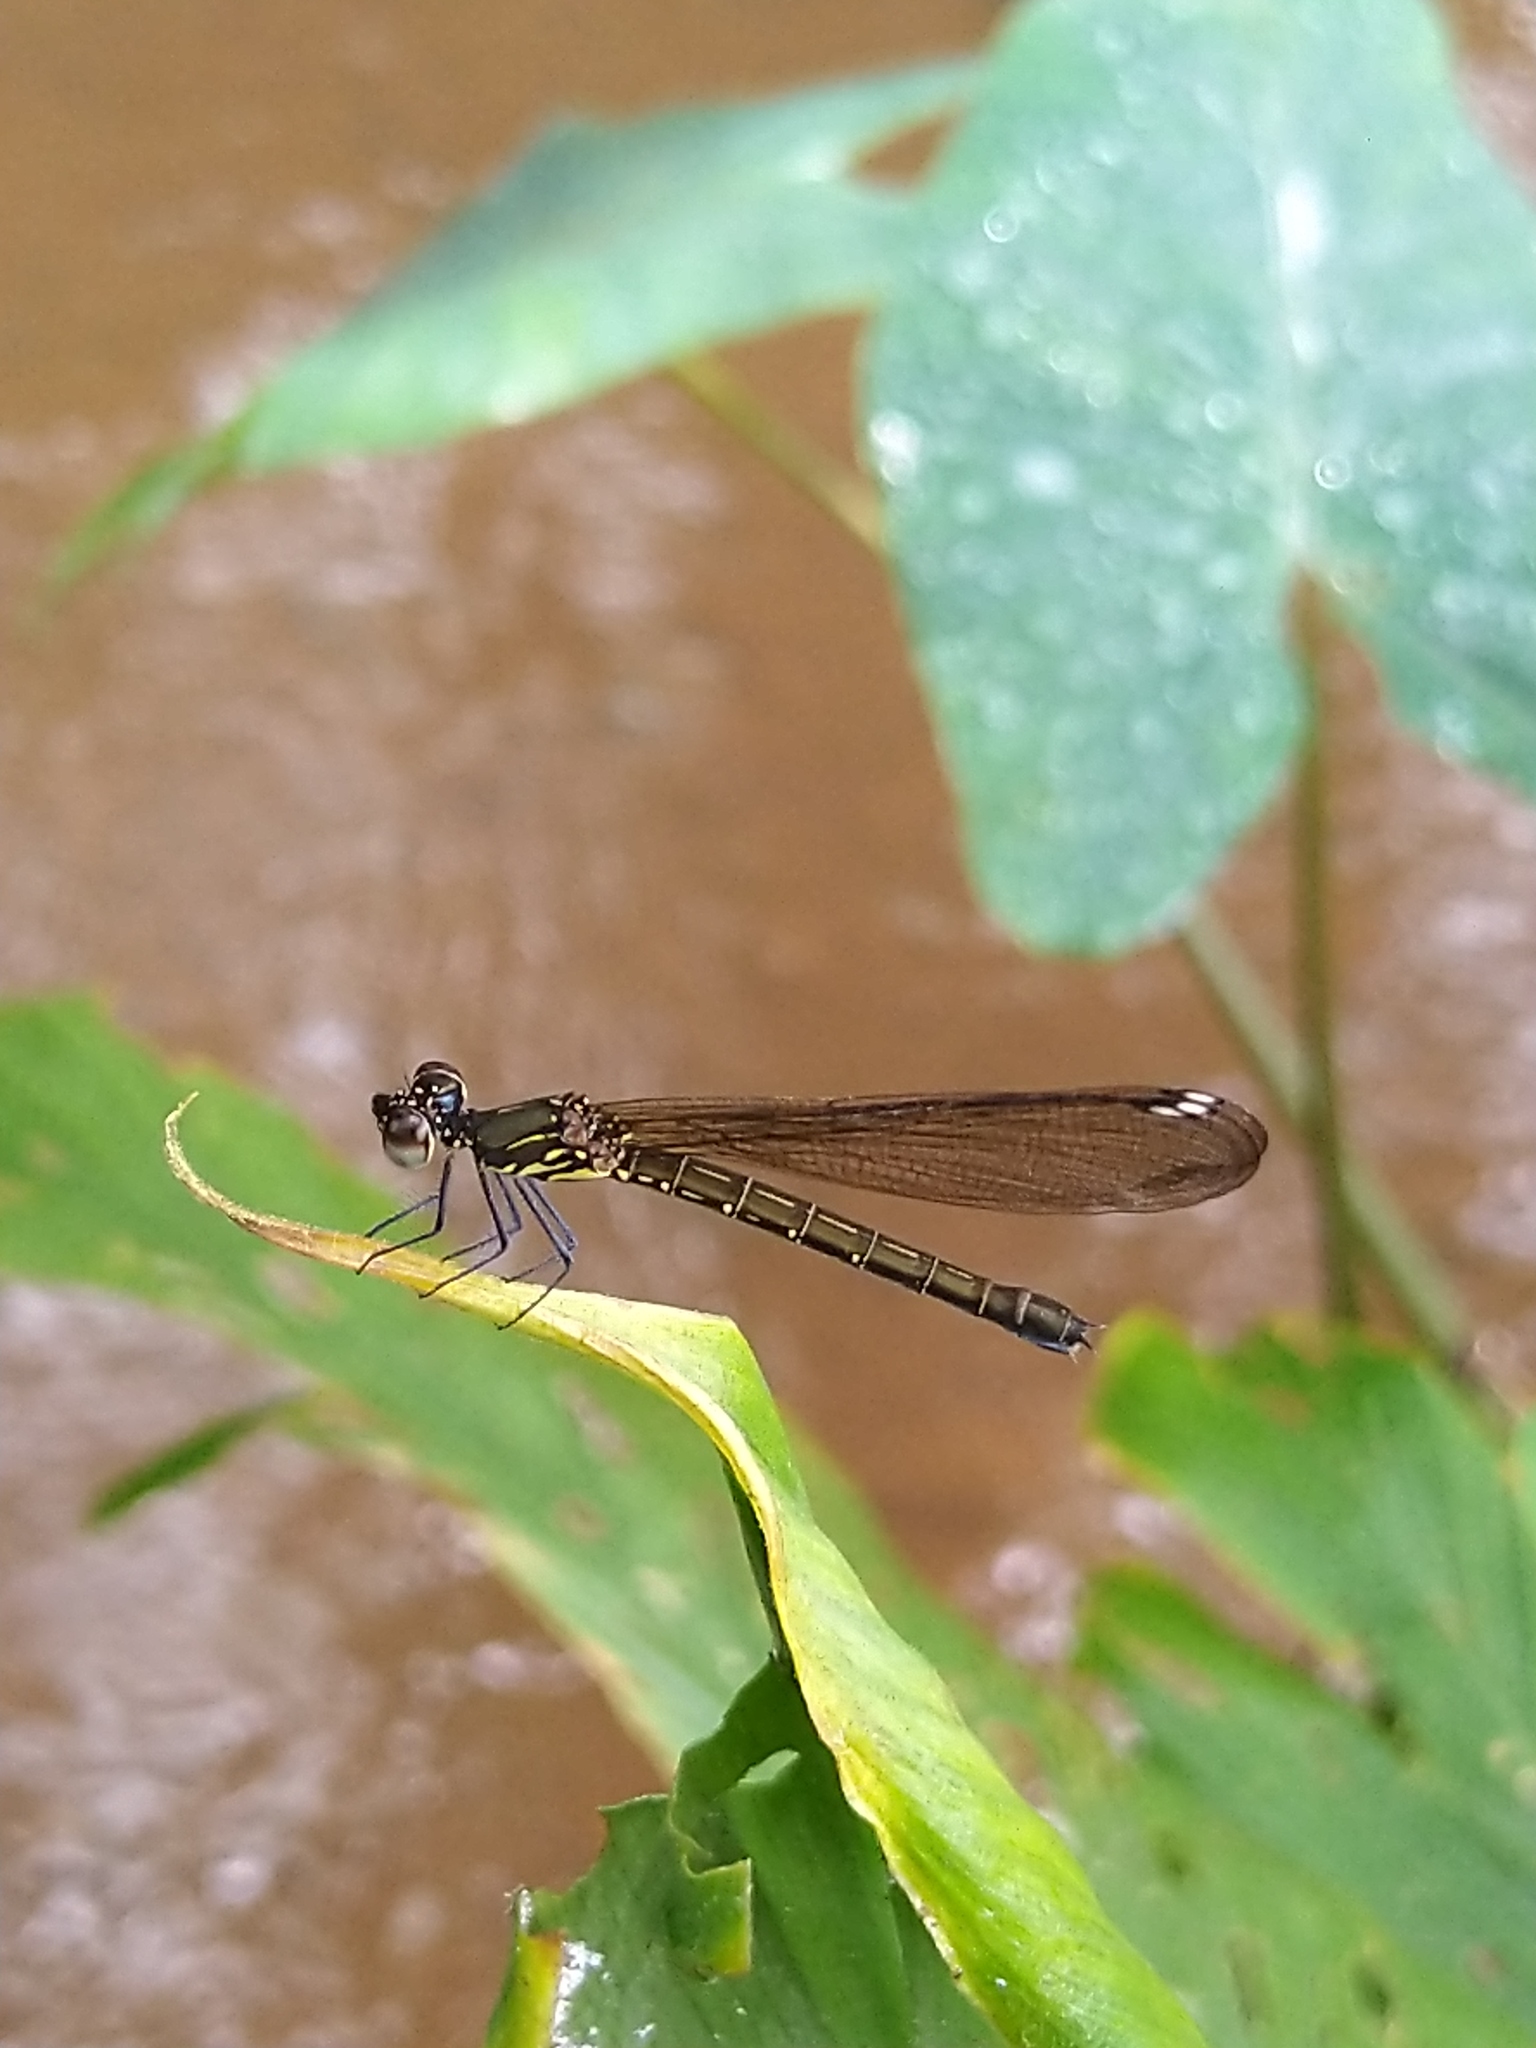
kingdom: Animalia
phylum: Arthropoda
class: Insecta
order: Odonata
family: Chlorocyphidae
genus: Heliocypha
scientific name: Heliocypha bisignata
